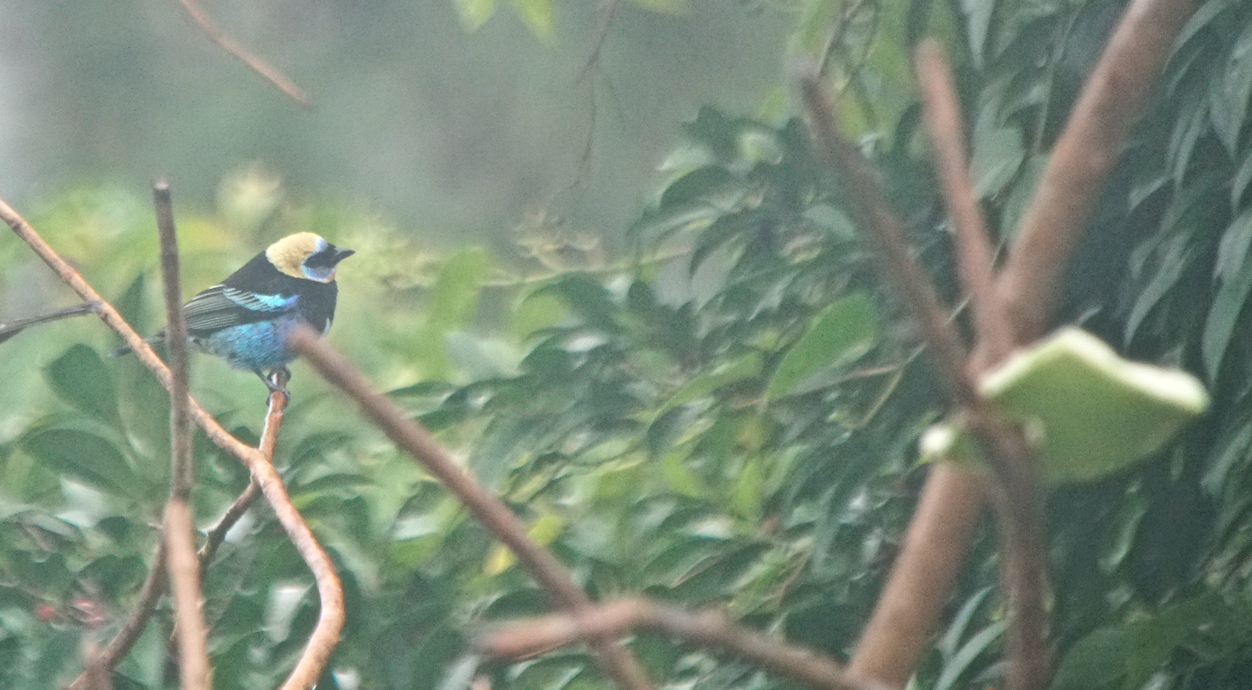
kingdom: Animalia
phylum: Chordata
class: Aves
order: Passeriformes
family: Thraupidae
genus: Stilpnia
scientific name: Stilpnia larvata
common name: Golden-hooded tanager
